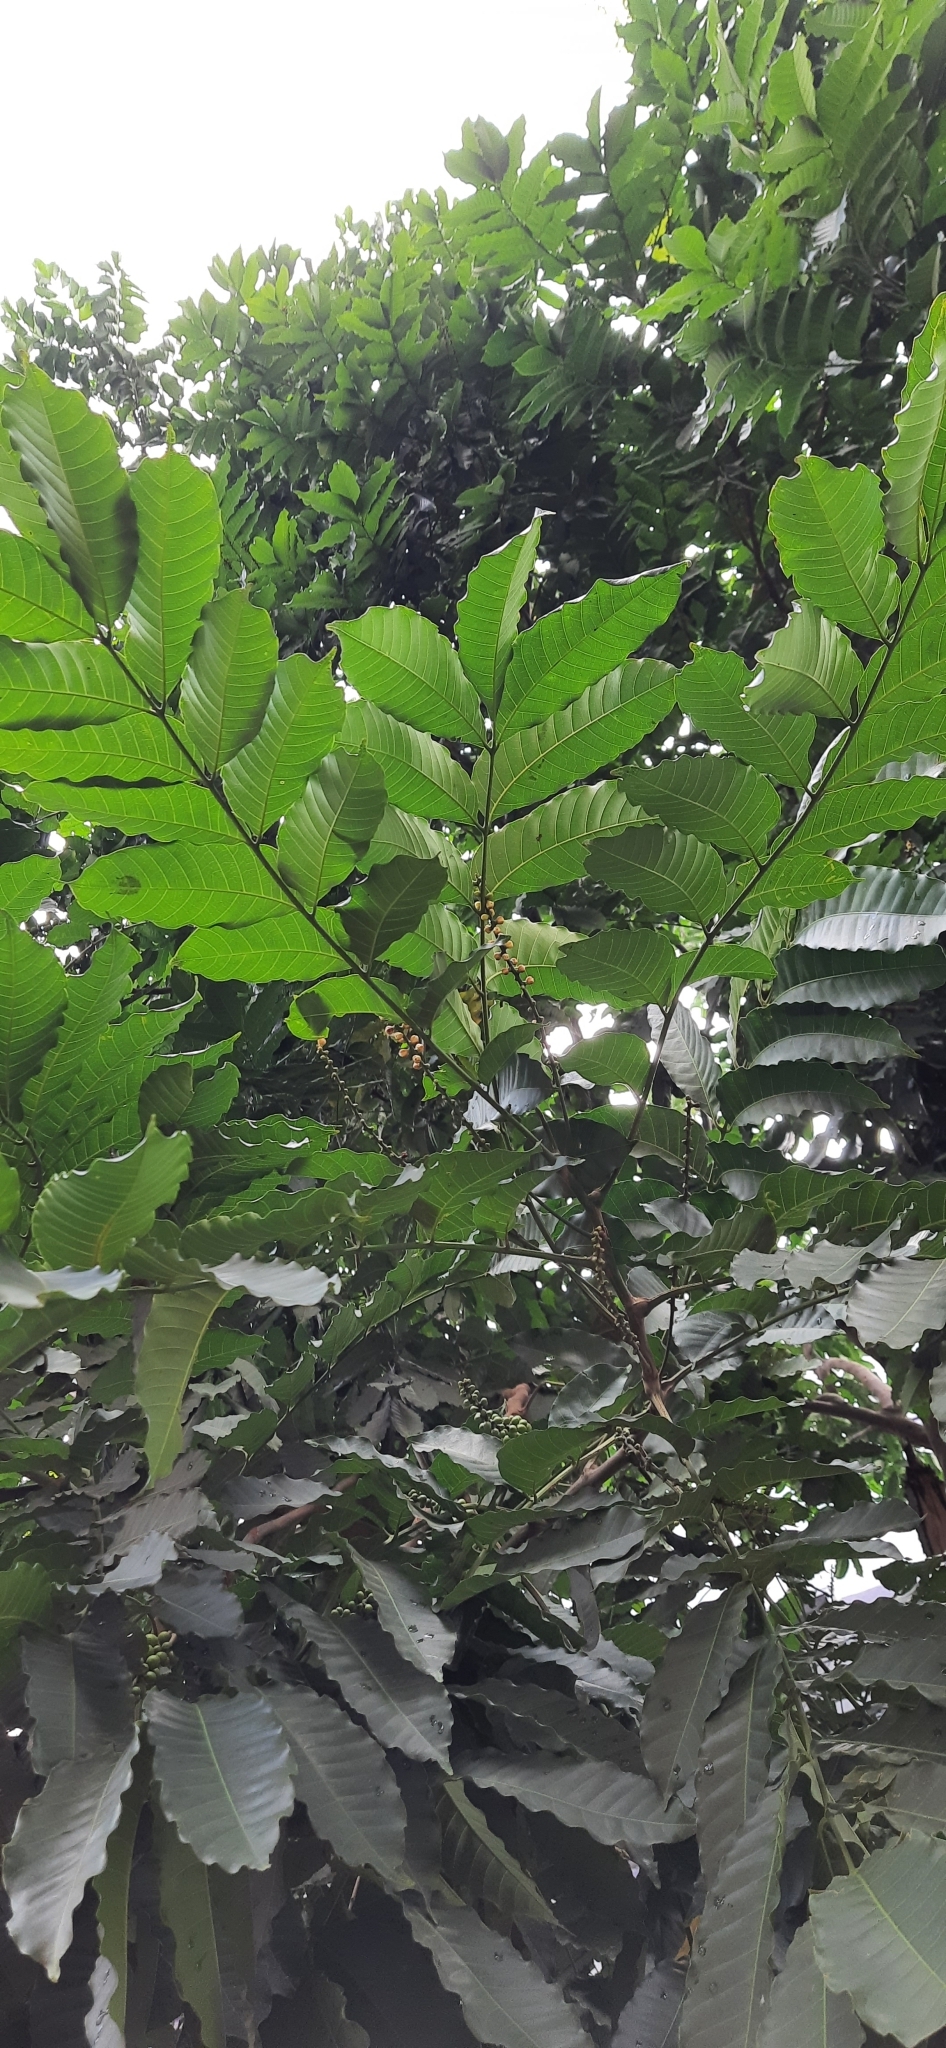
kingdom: Plantae
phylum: Tracheophyta
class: Magnoliopsida
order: Sapindales
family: Meliaceae
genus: Aphanamixis
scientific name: Aphanamixis polystachya
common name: Pithraj tree
